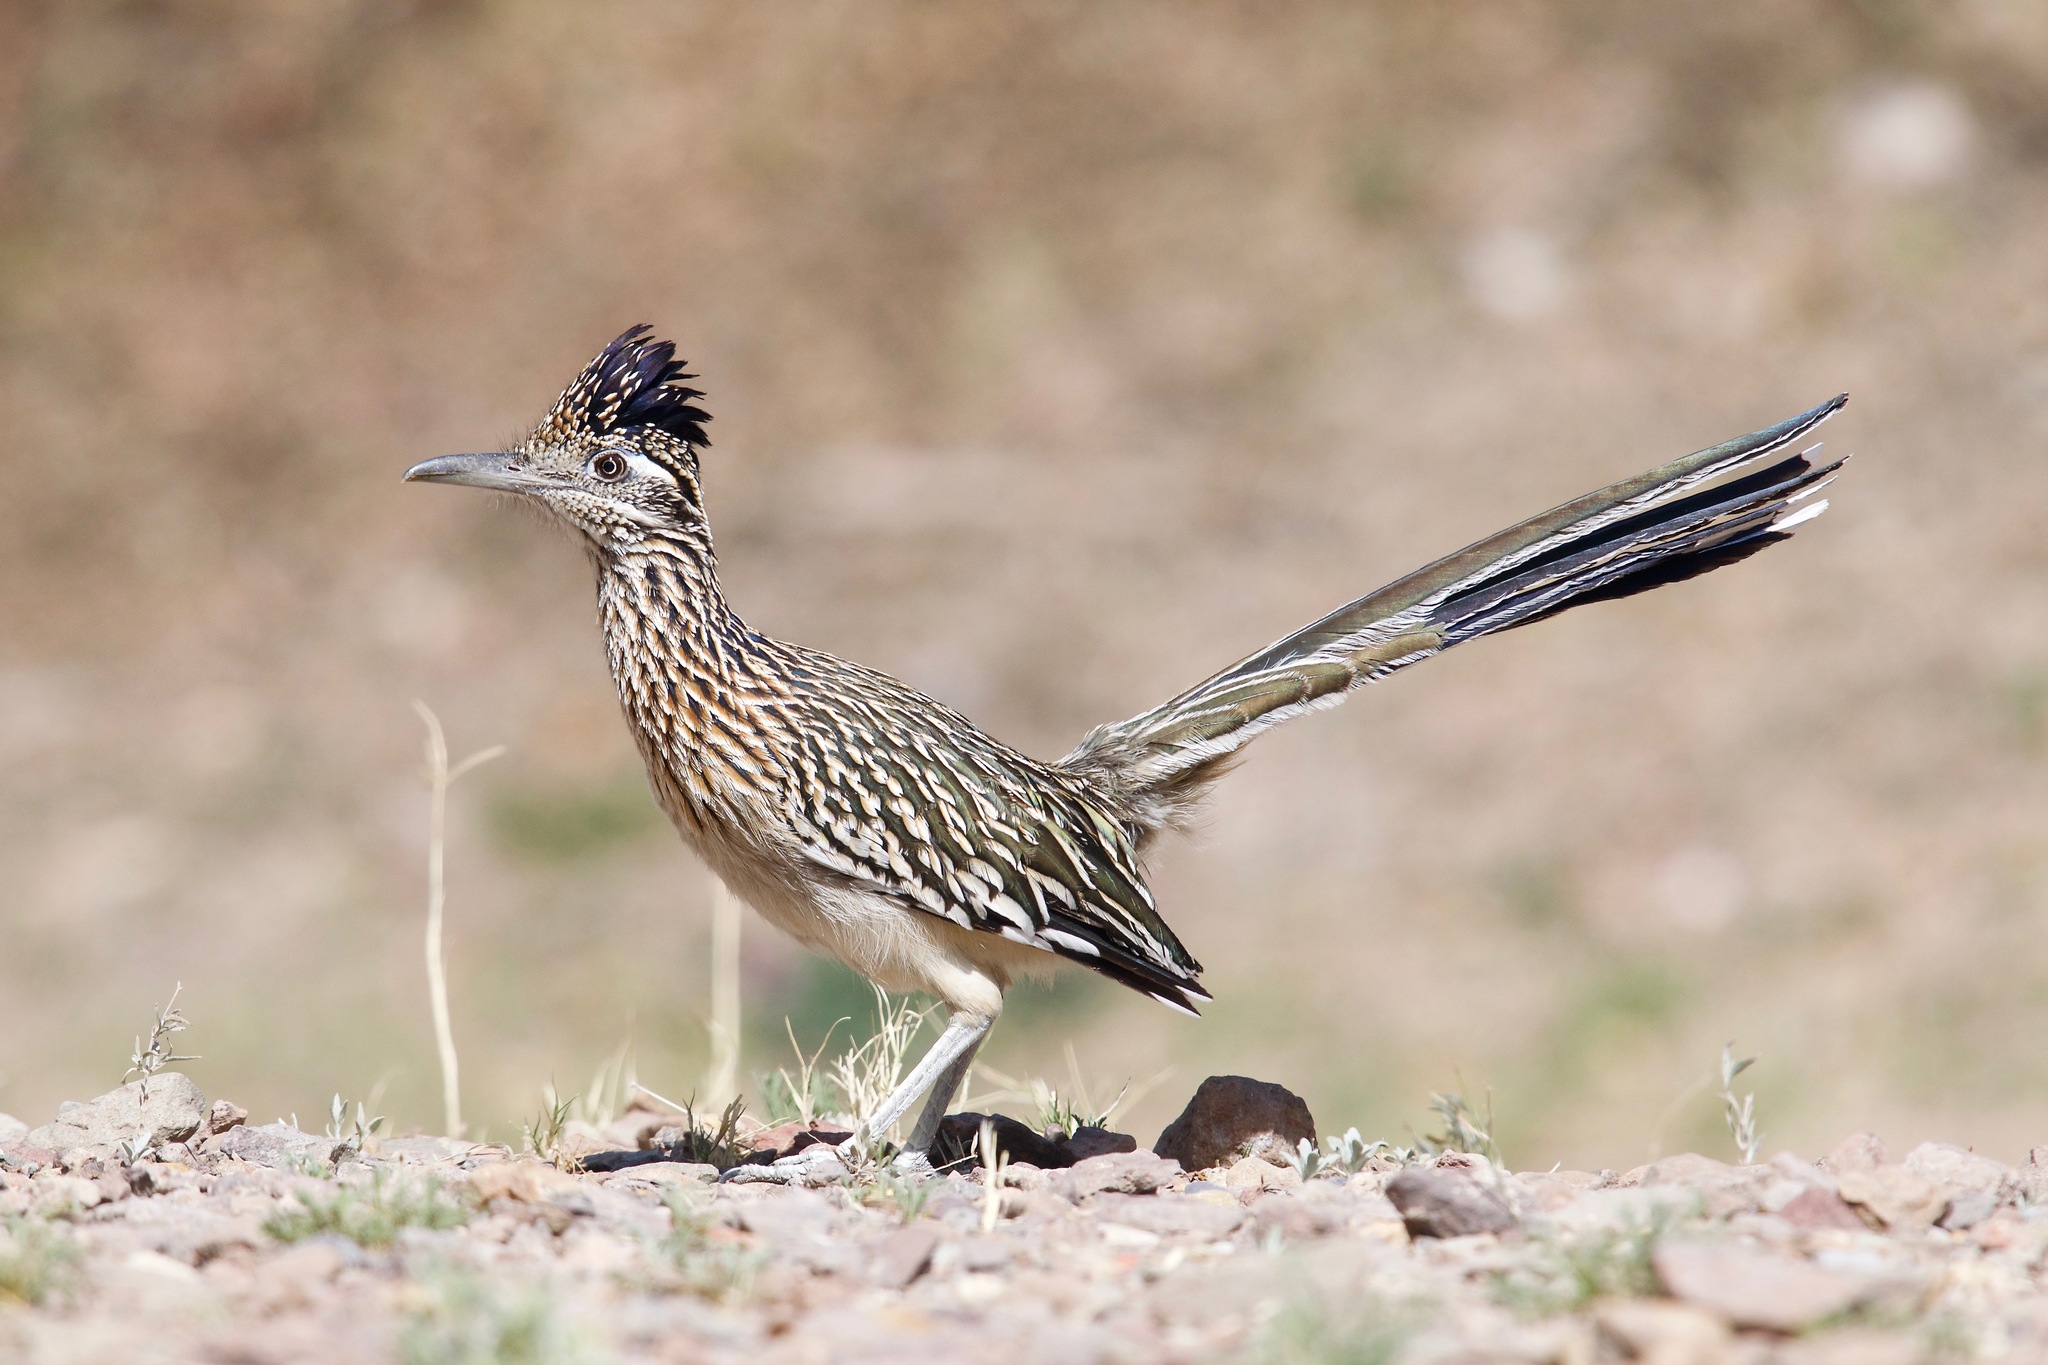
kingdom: Animalia
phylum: Chordata
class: Aves
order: Cuculiformes
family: Cuculidae
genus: Geococcyx
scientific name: Geococcyx californianus
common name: Greater roadrunner
